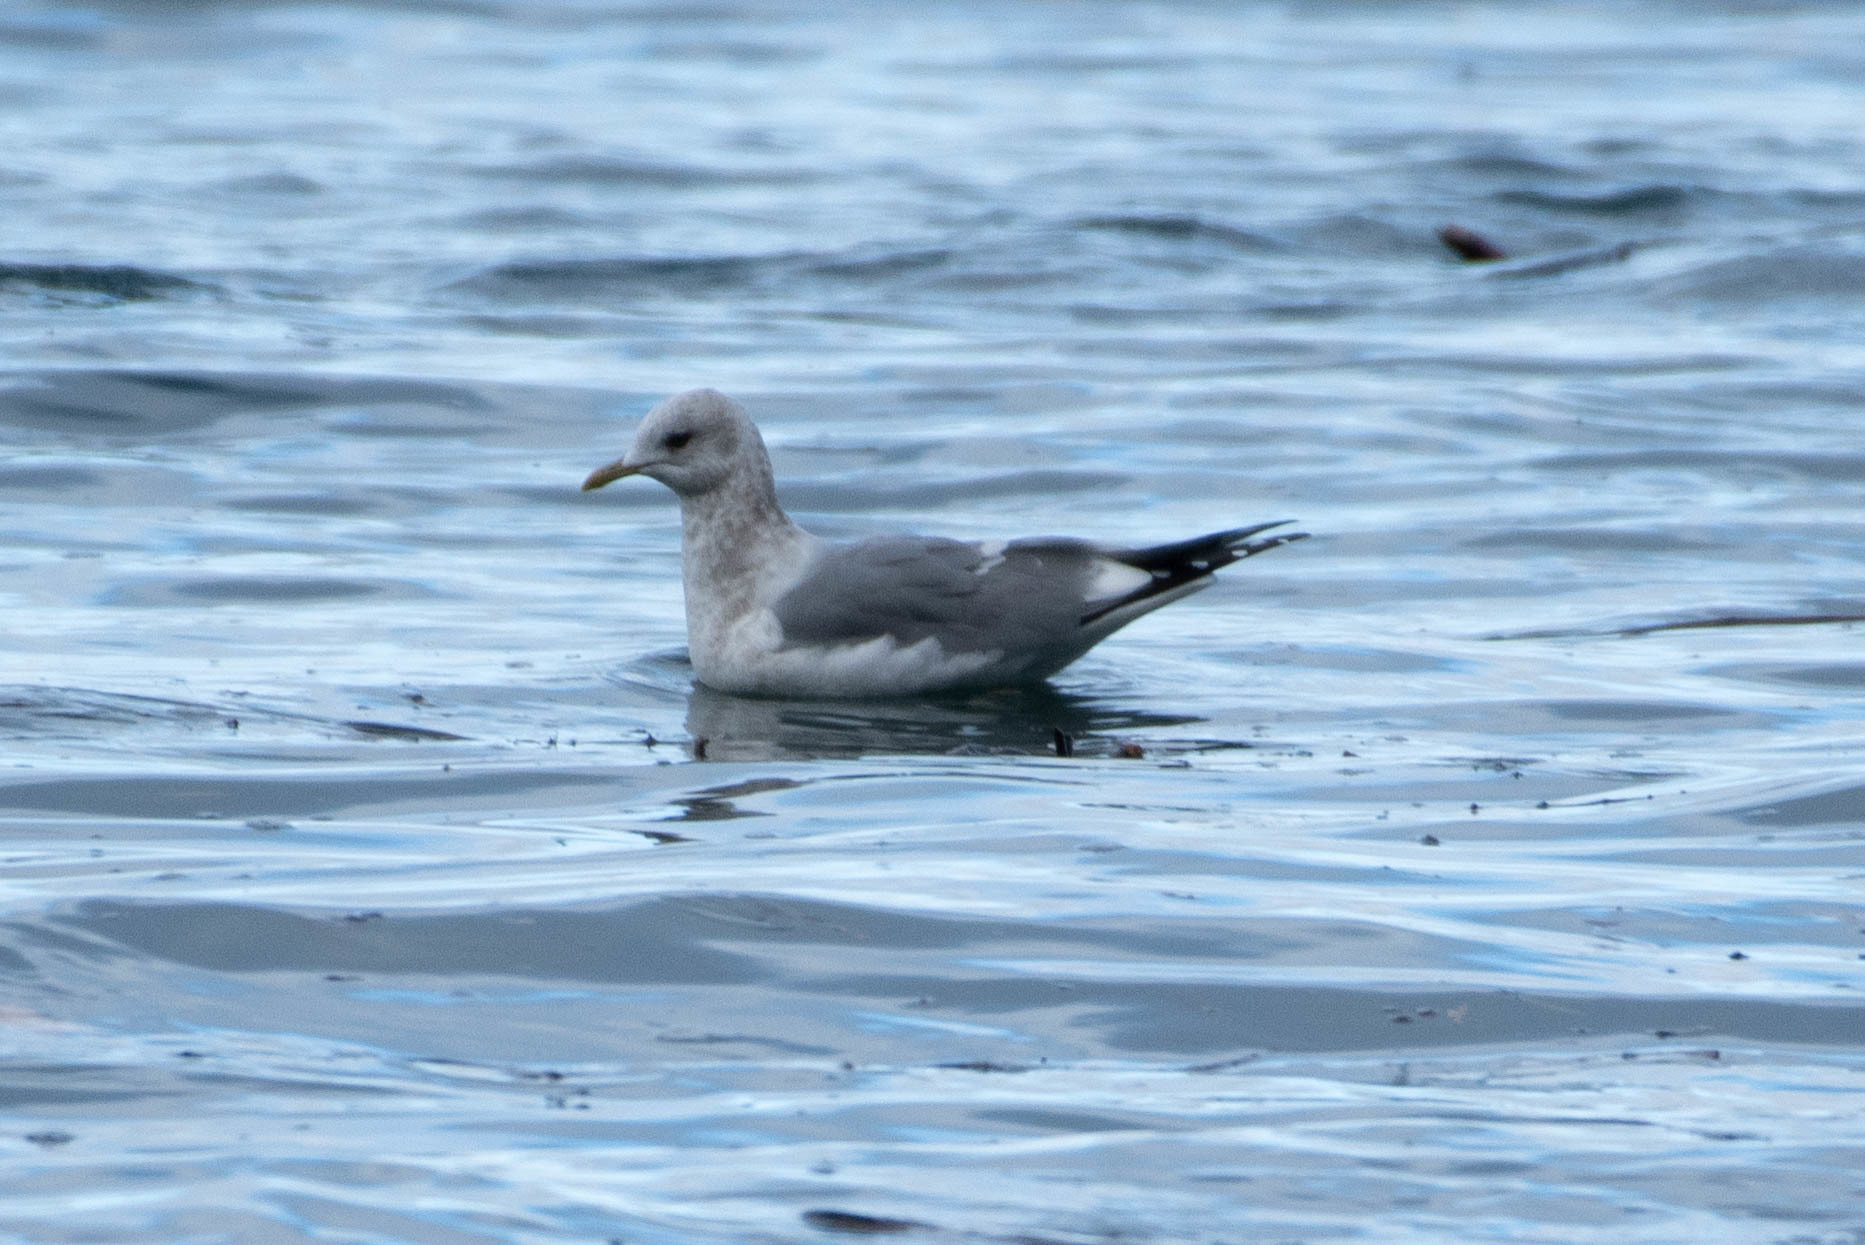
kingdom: Animalia
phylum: Chordata
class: Aves
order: Charadriiformes
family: Laridae
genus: Larus
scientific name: Larus brachyrhynchus
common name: Short-billed gull
